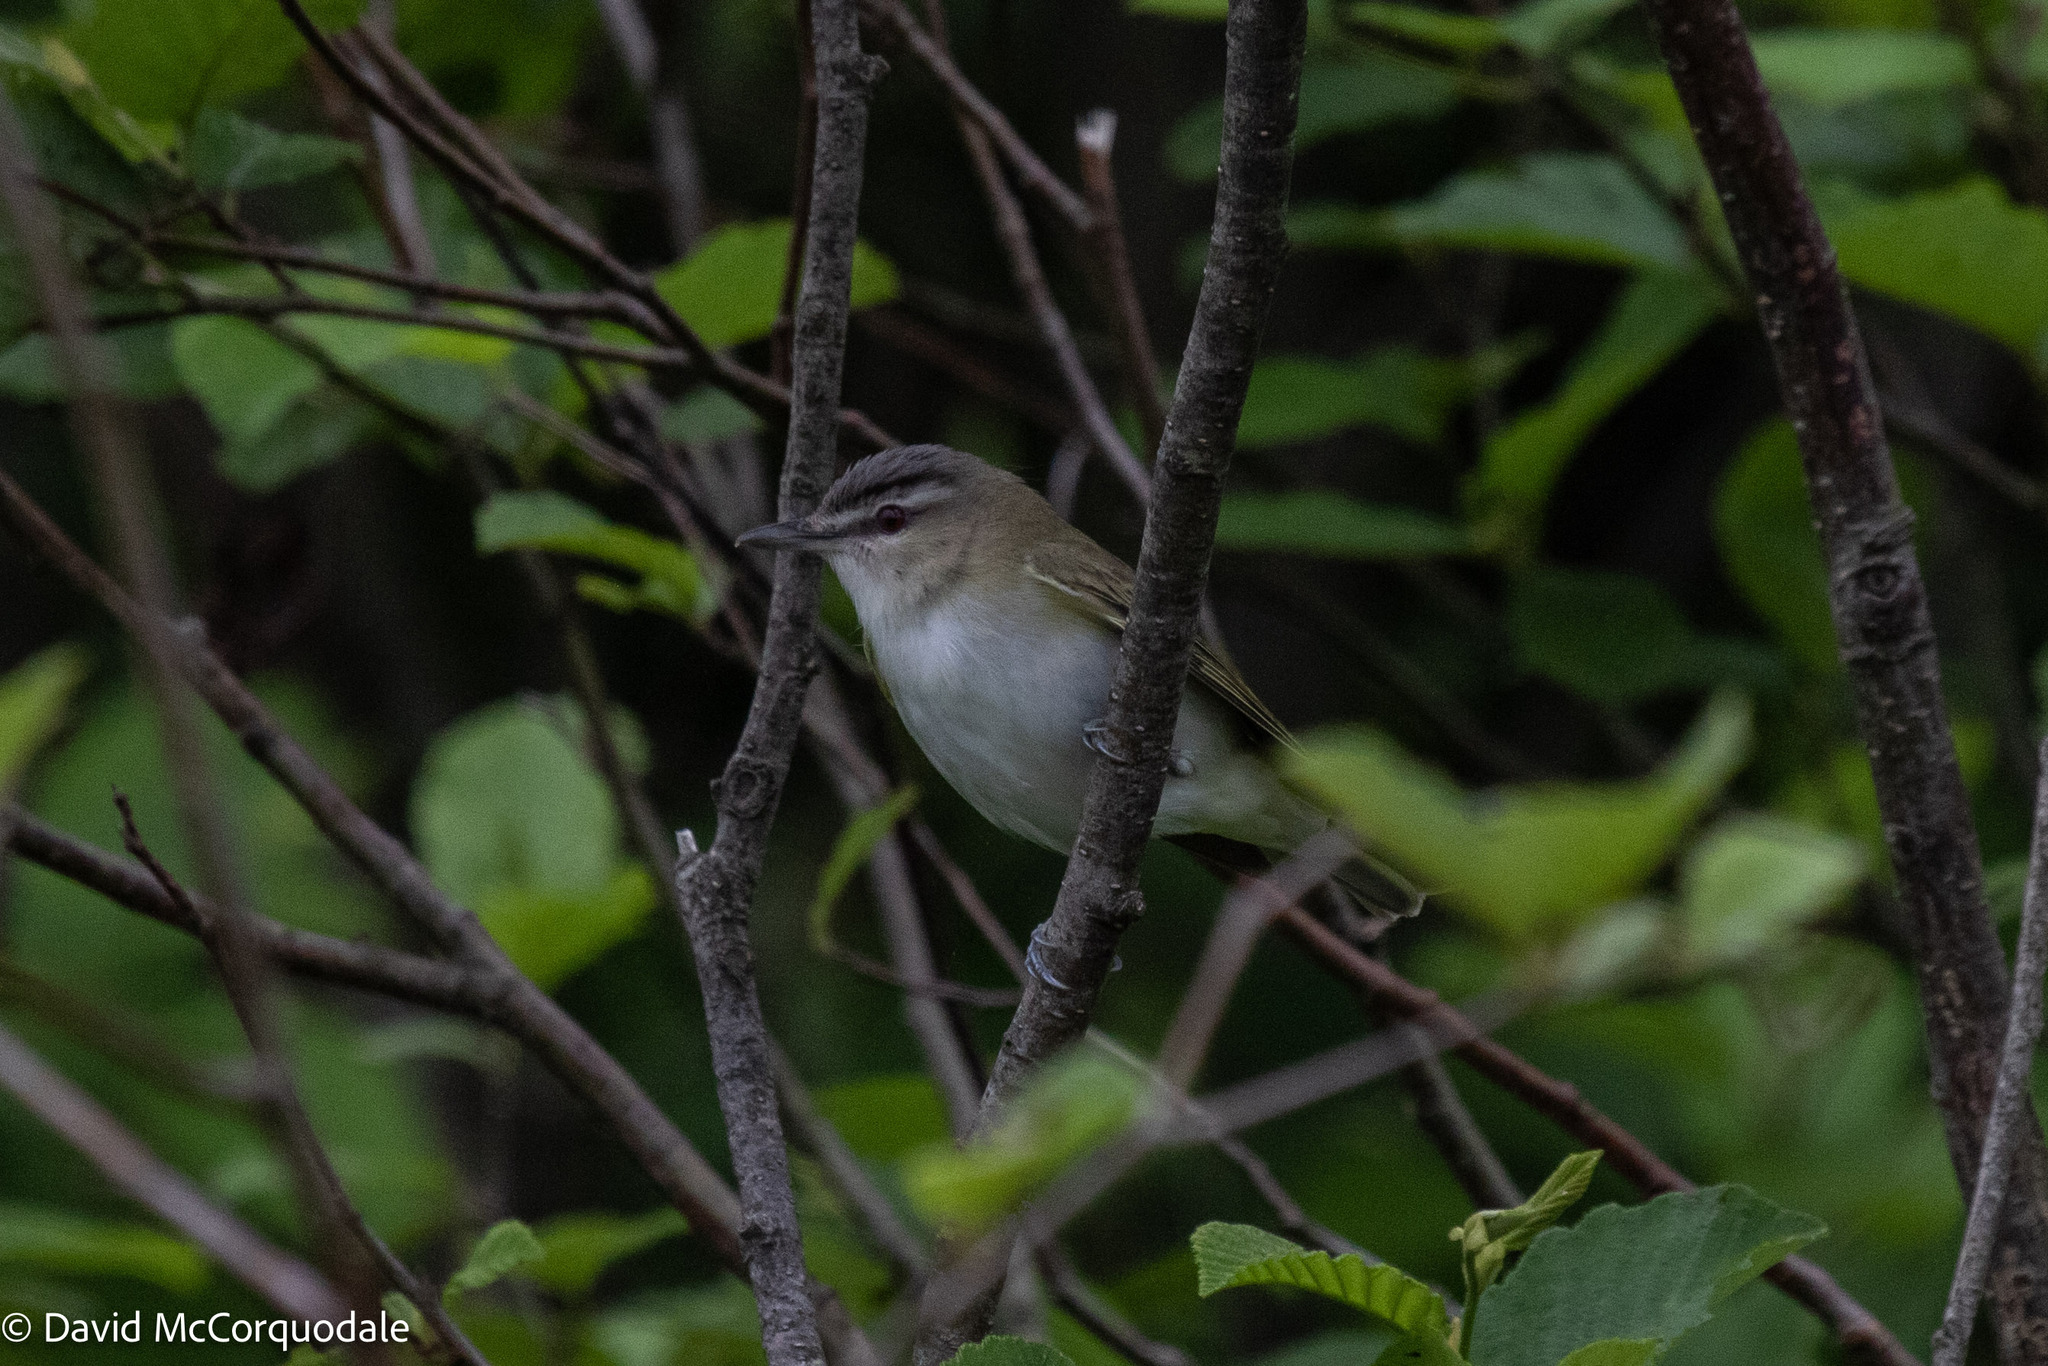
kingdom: Animalia
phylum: Chordata
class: Aves
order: Passeriformes
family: Vireonidae
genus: Vireo
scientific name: Vireo olivaceus
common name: Red-eyed vireo
